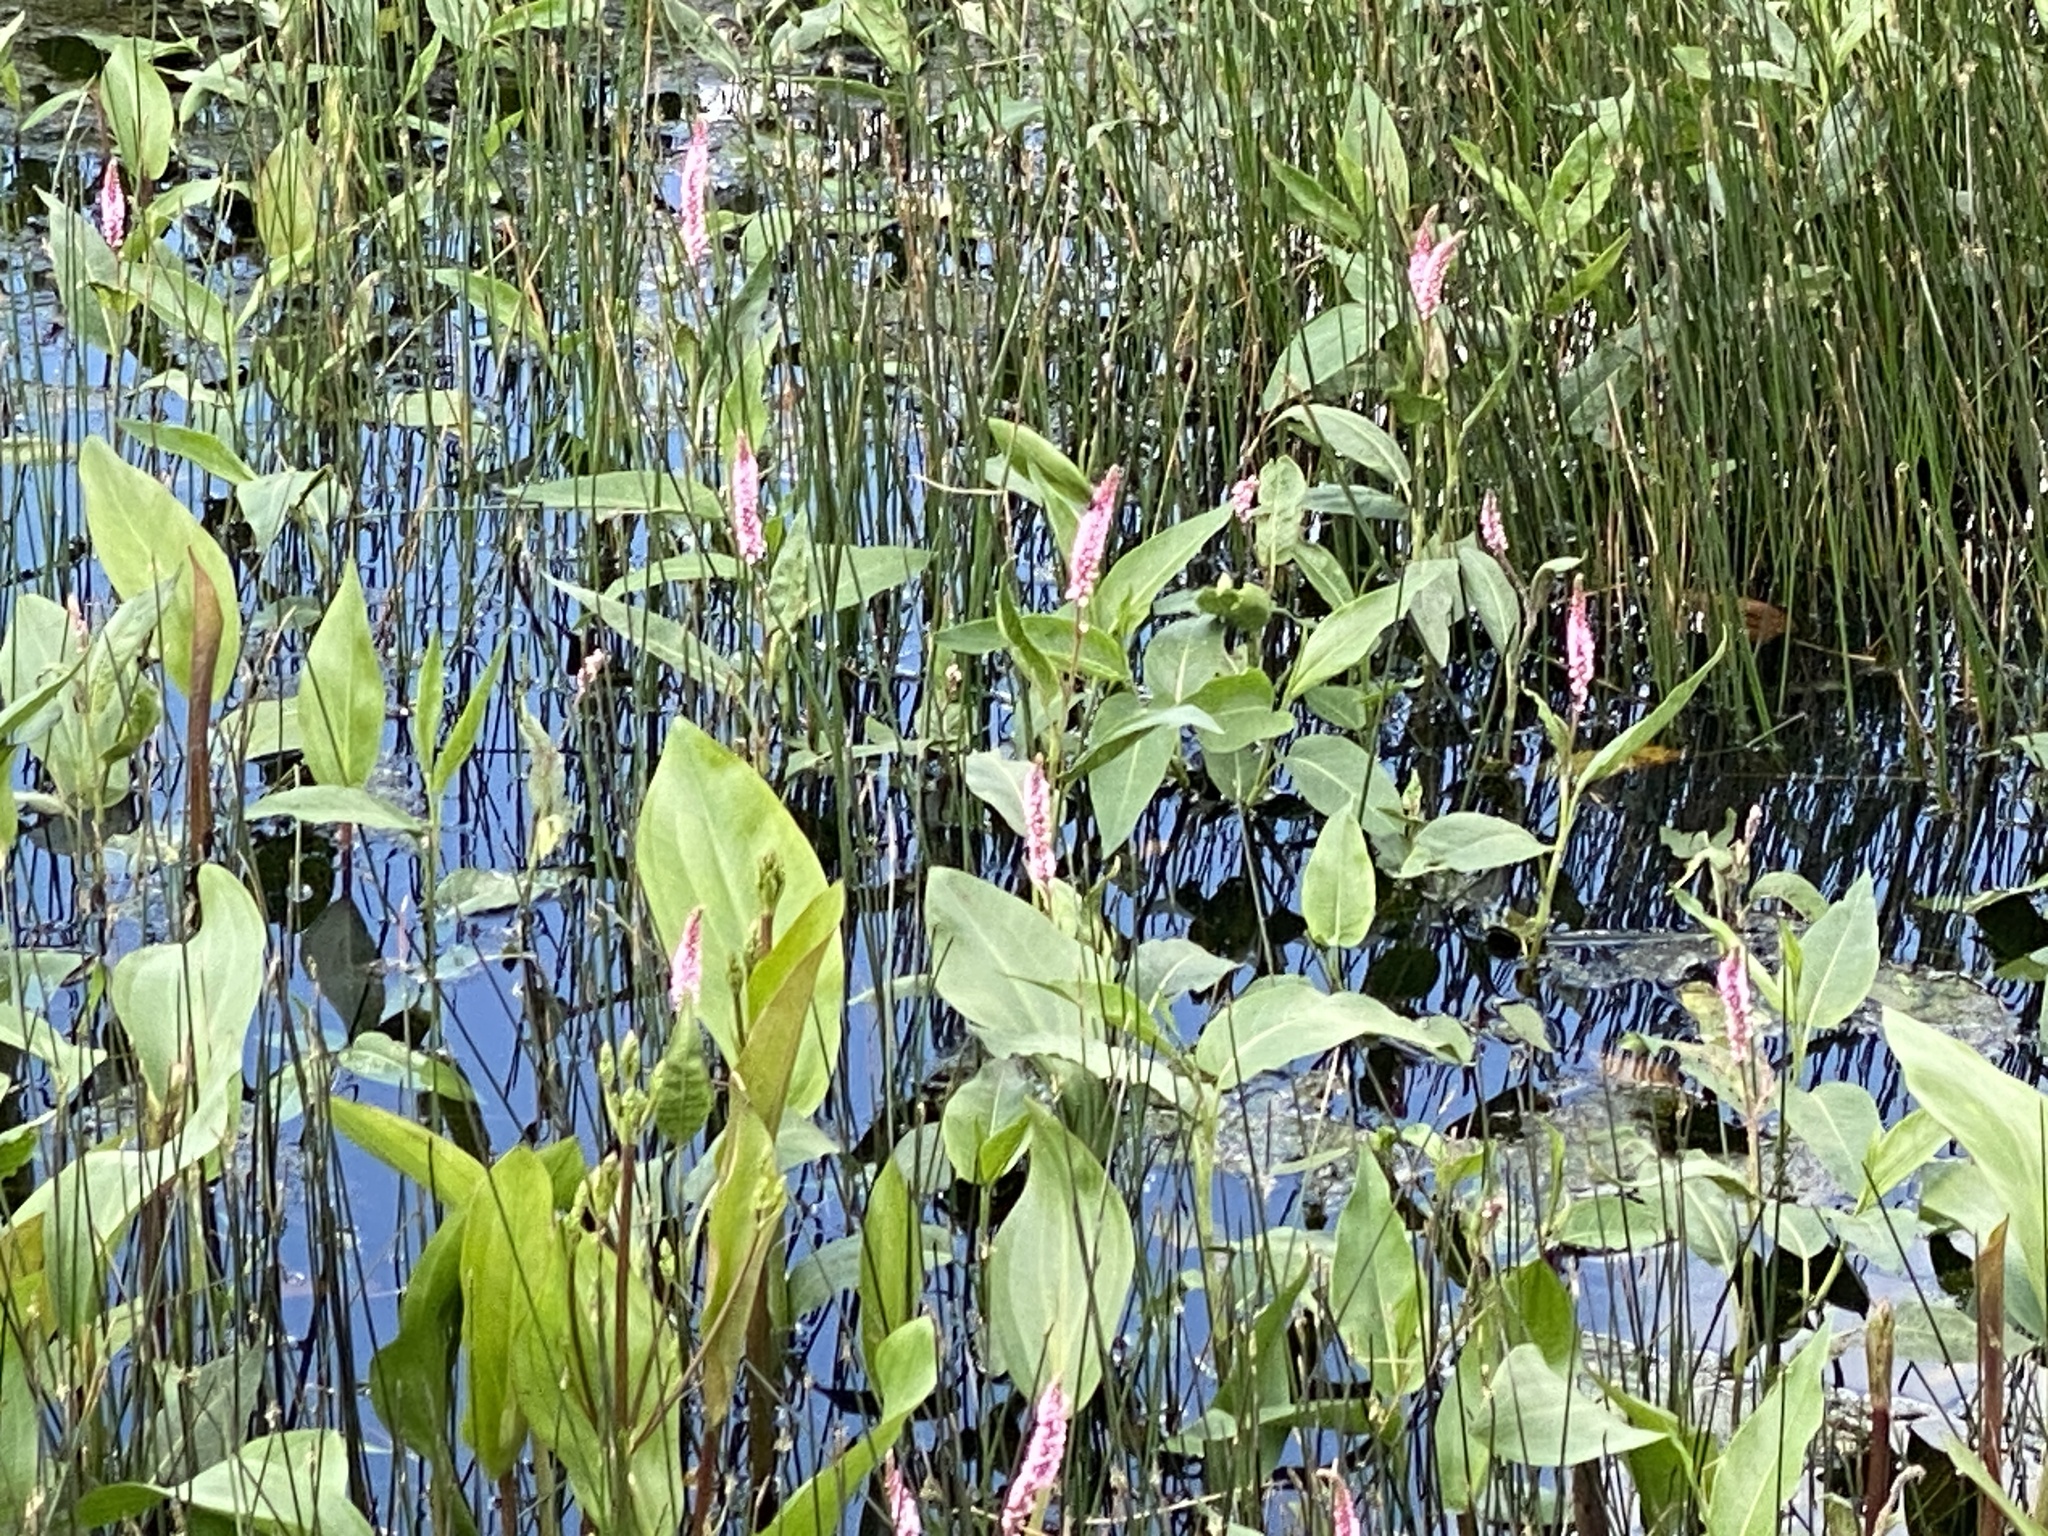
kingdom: Plantae
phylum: Tracheophyta
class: Magnoliopsida
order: Caryophyllales
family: Polygonaceae
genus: Persicaria
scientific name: Persicaria amphibia
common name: Amphibious bistort
